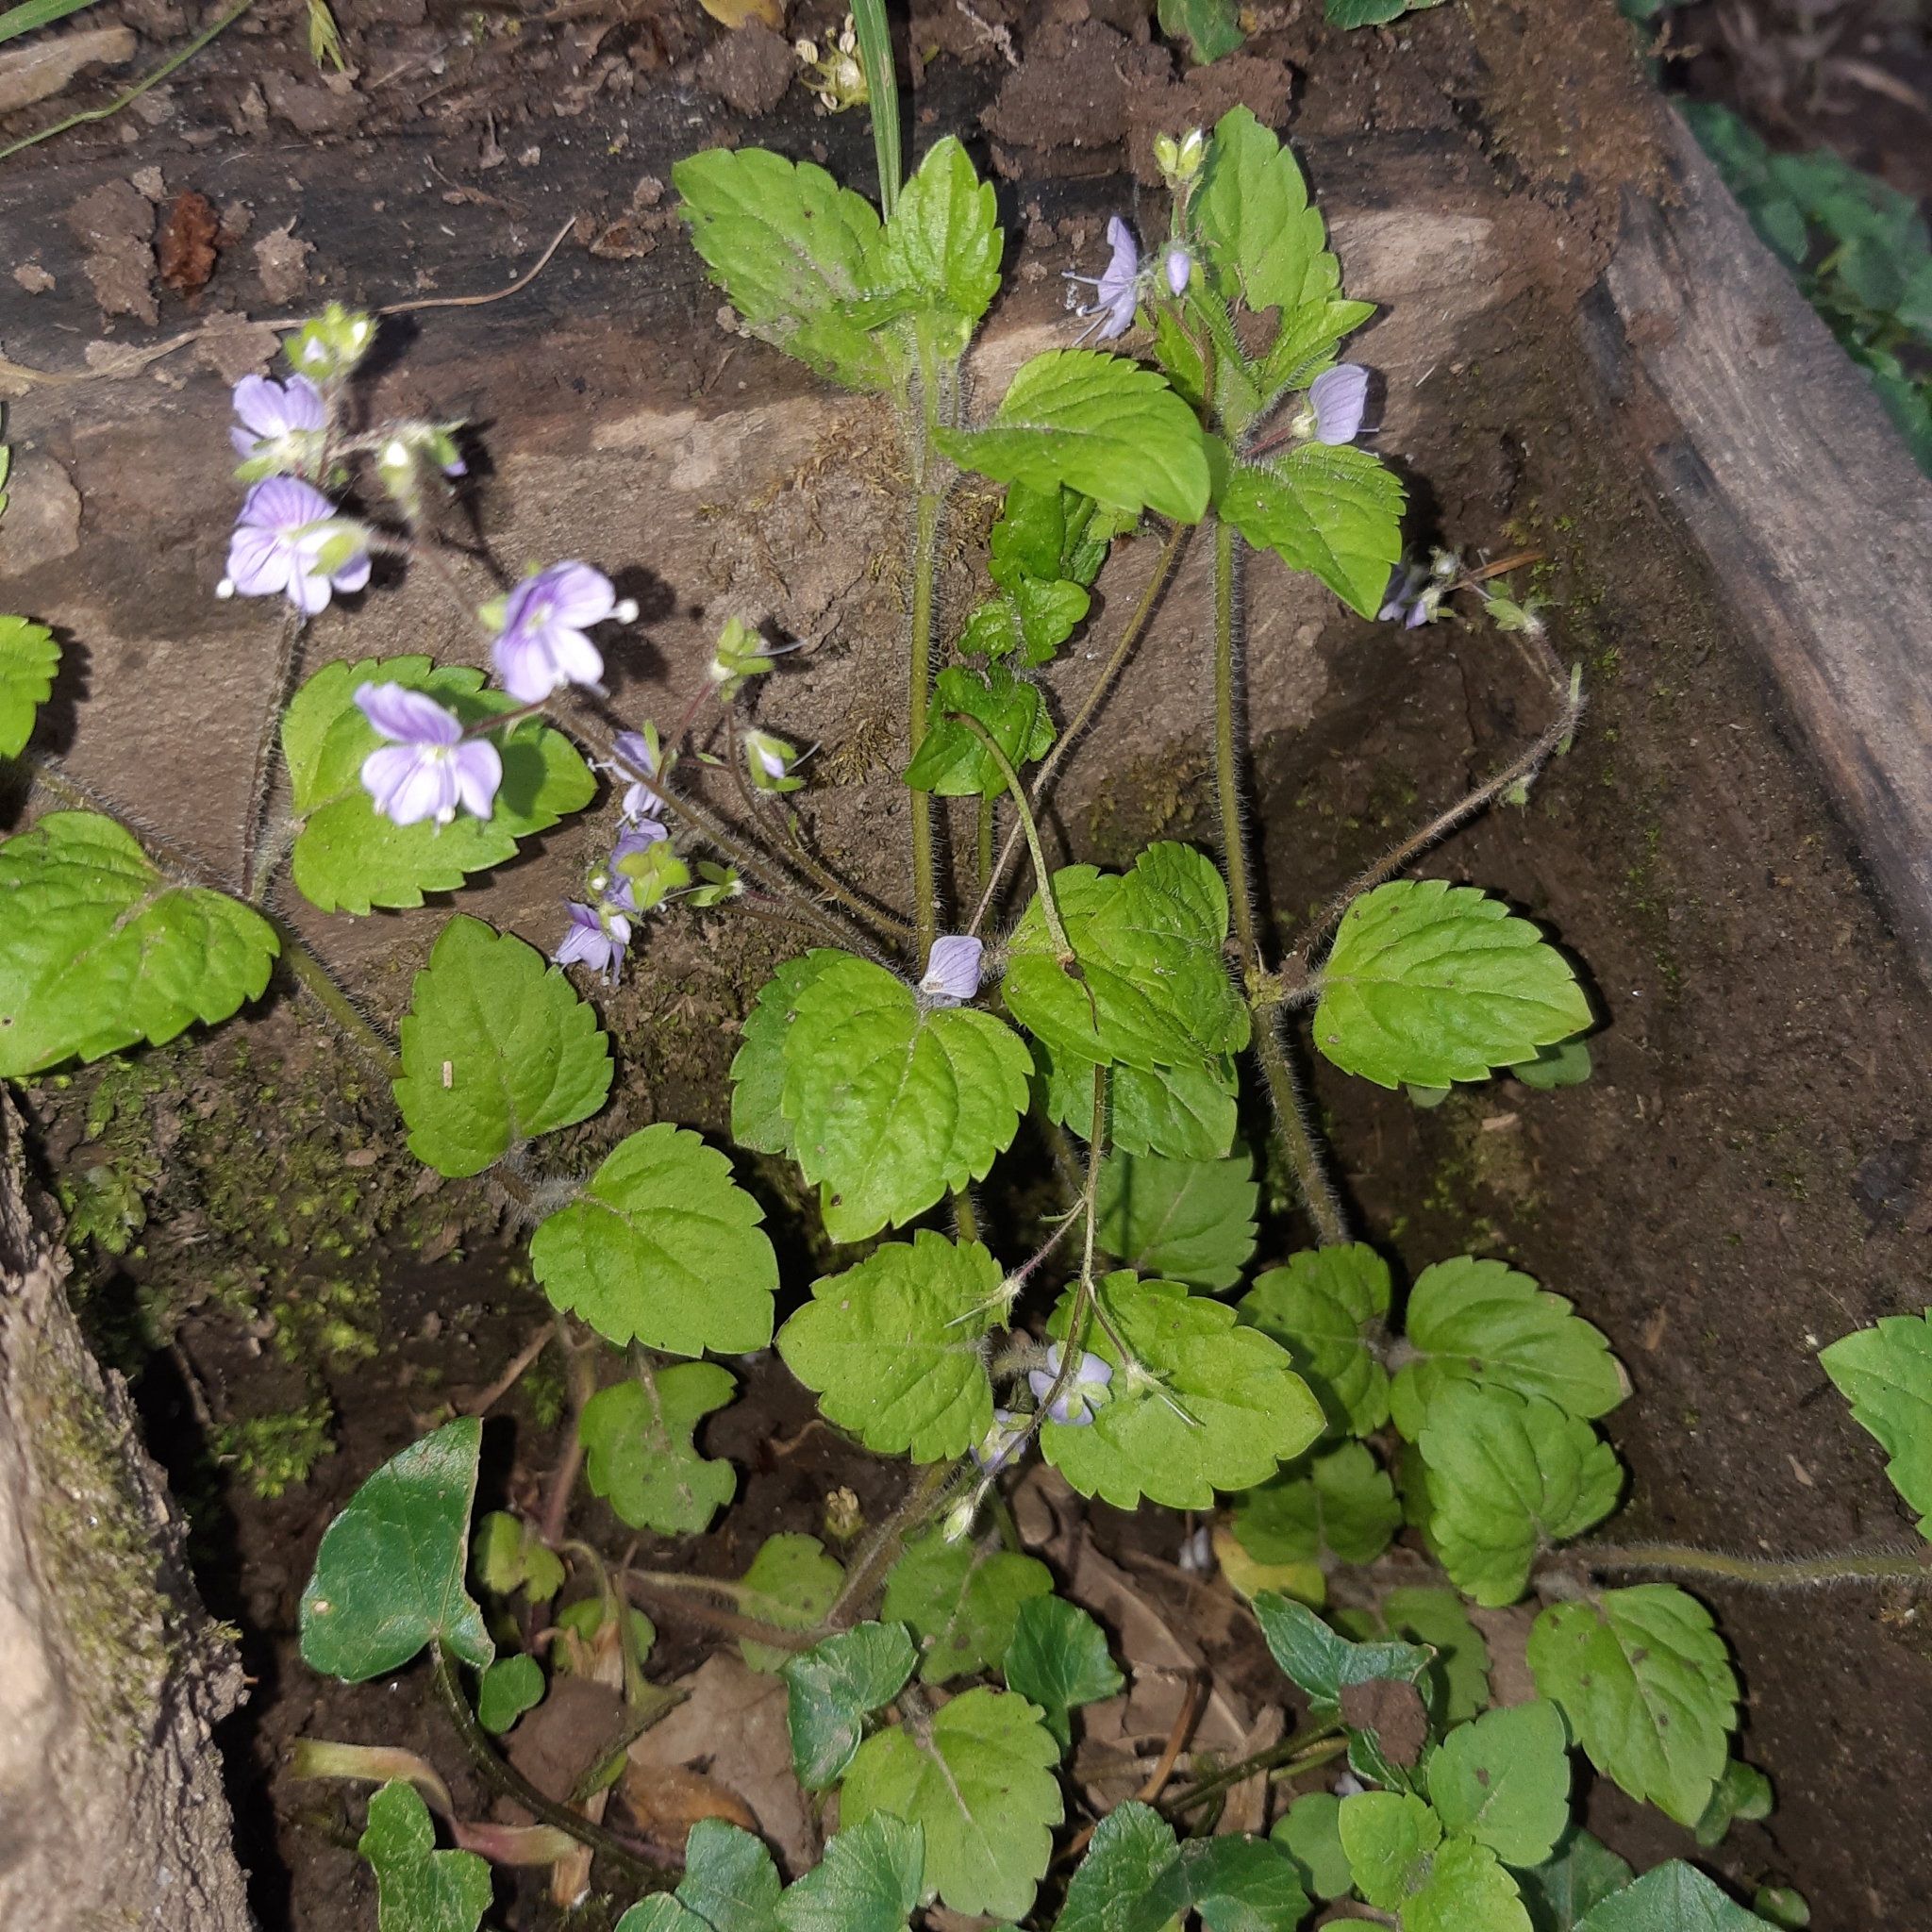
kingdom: Plantae
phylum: Tracheophyta
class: Magnoliopsida
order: Lamiales
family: Plantaginaceae
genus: Veronica
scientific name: Veronica montana
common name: Wood speedwell
